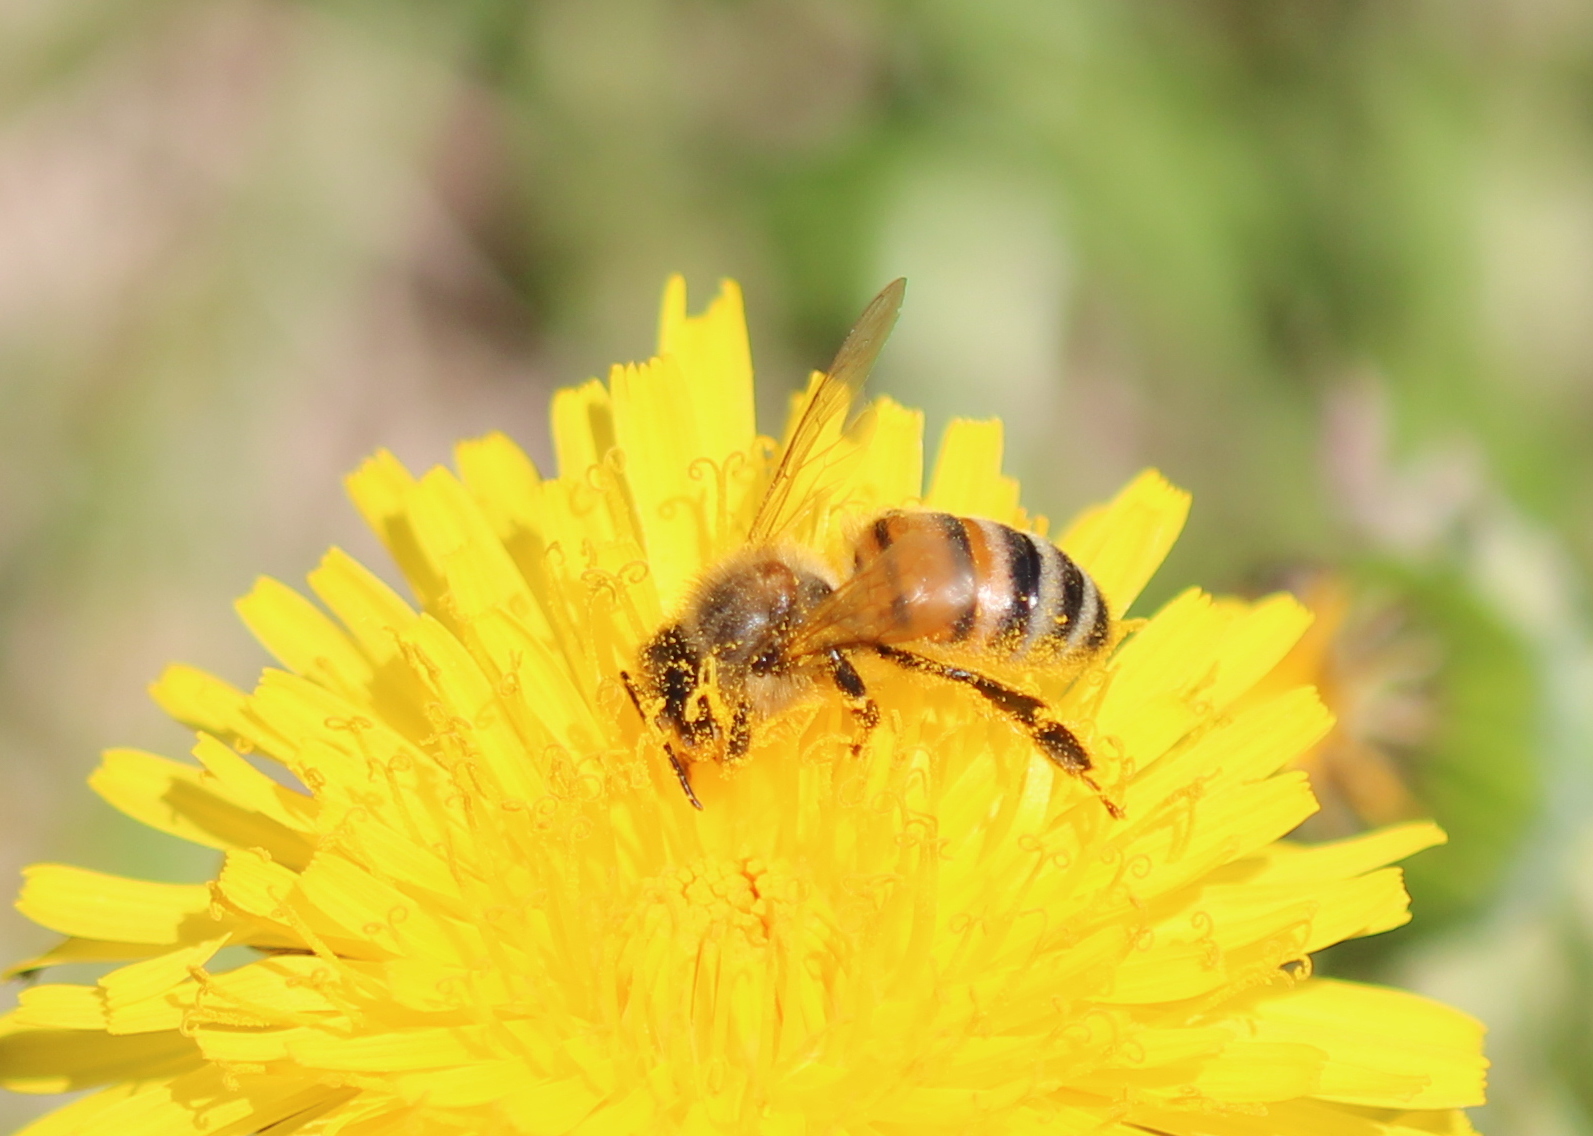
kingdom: Animalia
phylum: Arthropoda
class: Insecta
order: Hymenoptera
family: Apidae
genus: Apis
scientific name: Apis mellifera
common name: Honey bee
